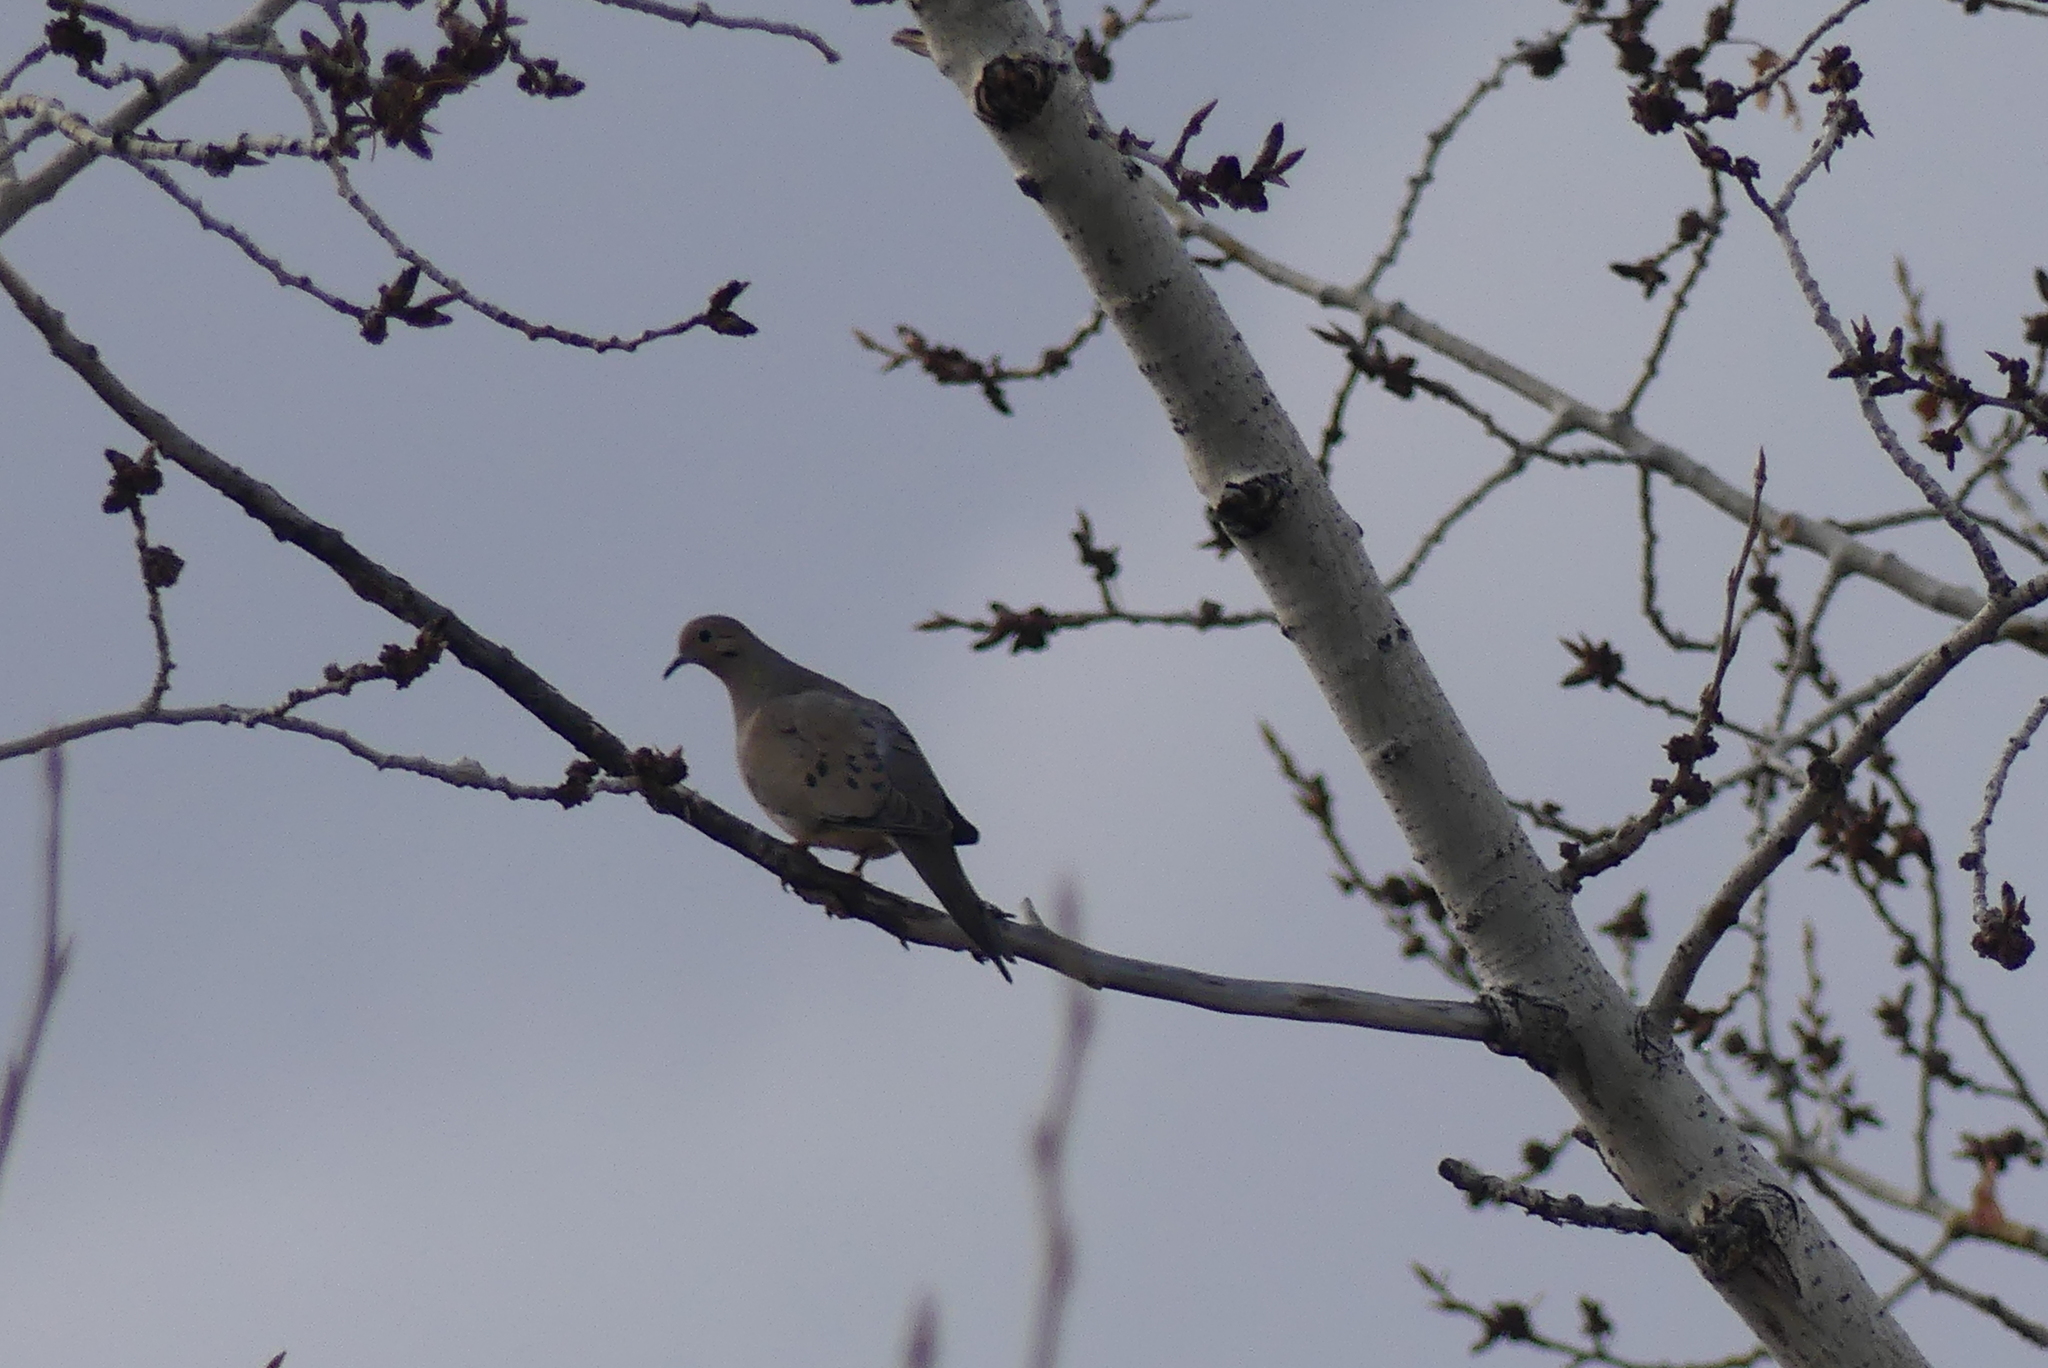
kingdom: Animalia
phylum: Chordata
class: Aves
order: Columbiformes
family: Columbidae
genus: Zenaida
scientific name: Zenaida macroura
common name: Mourning dove
